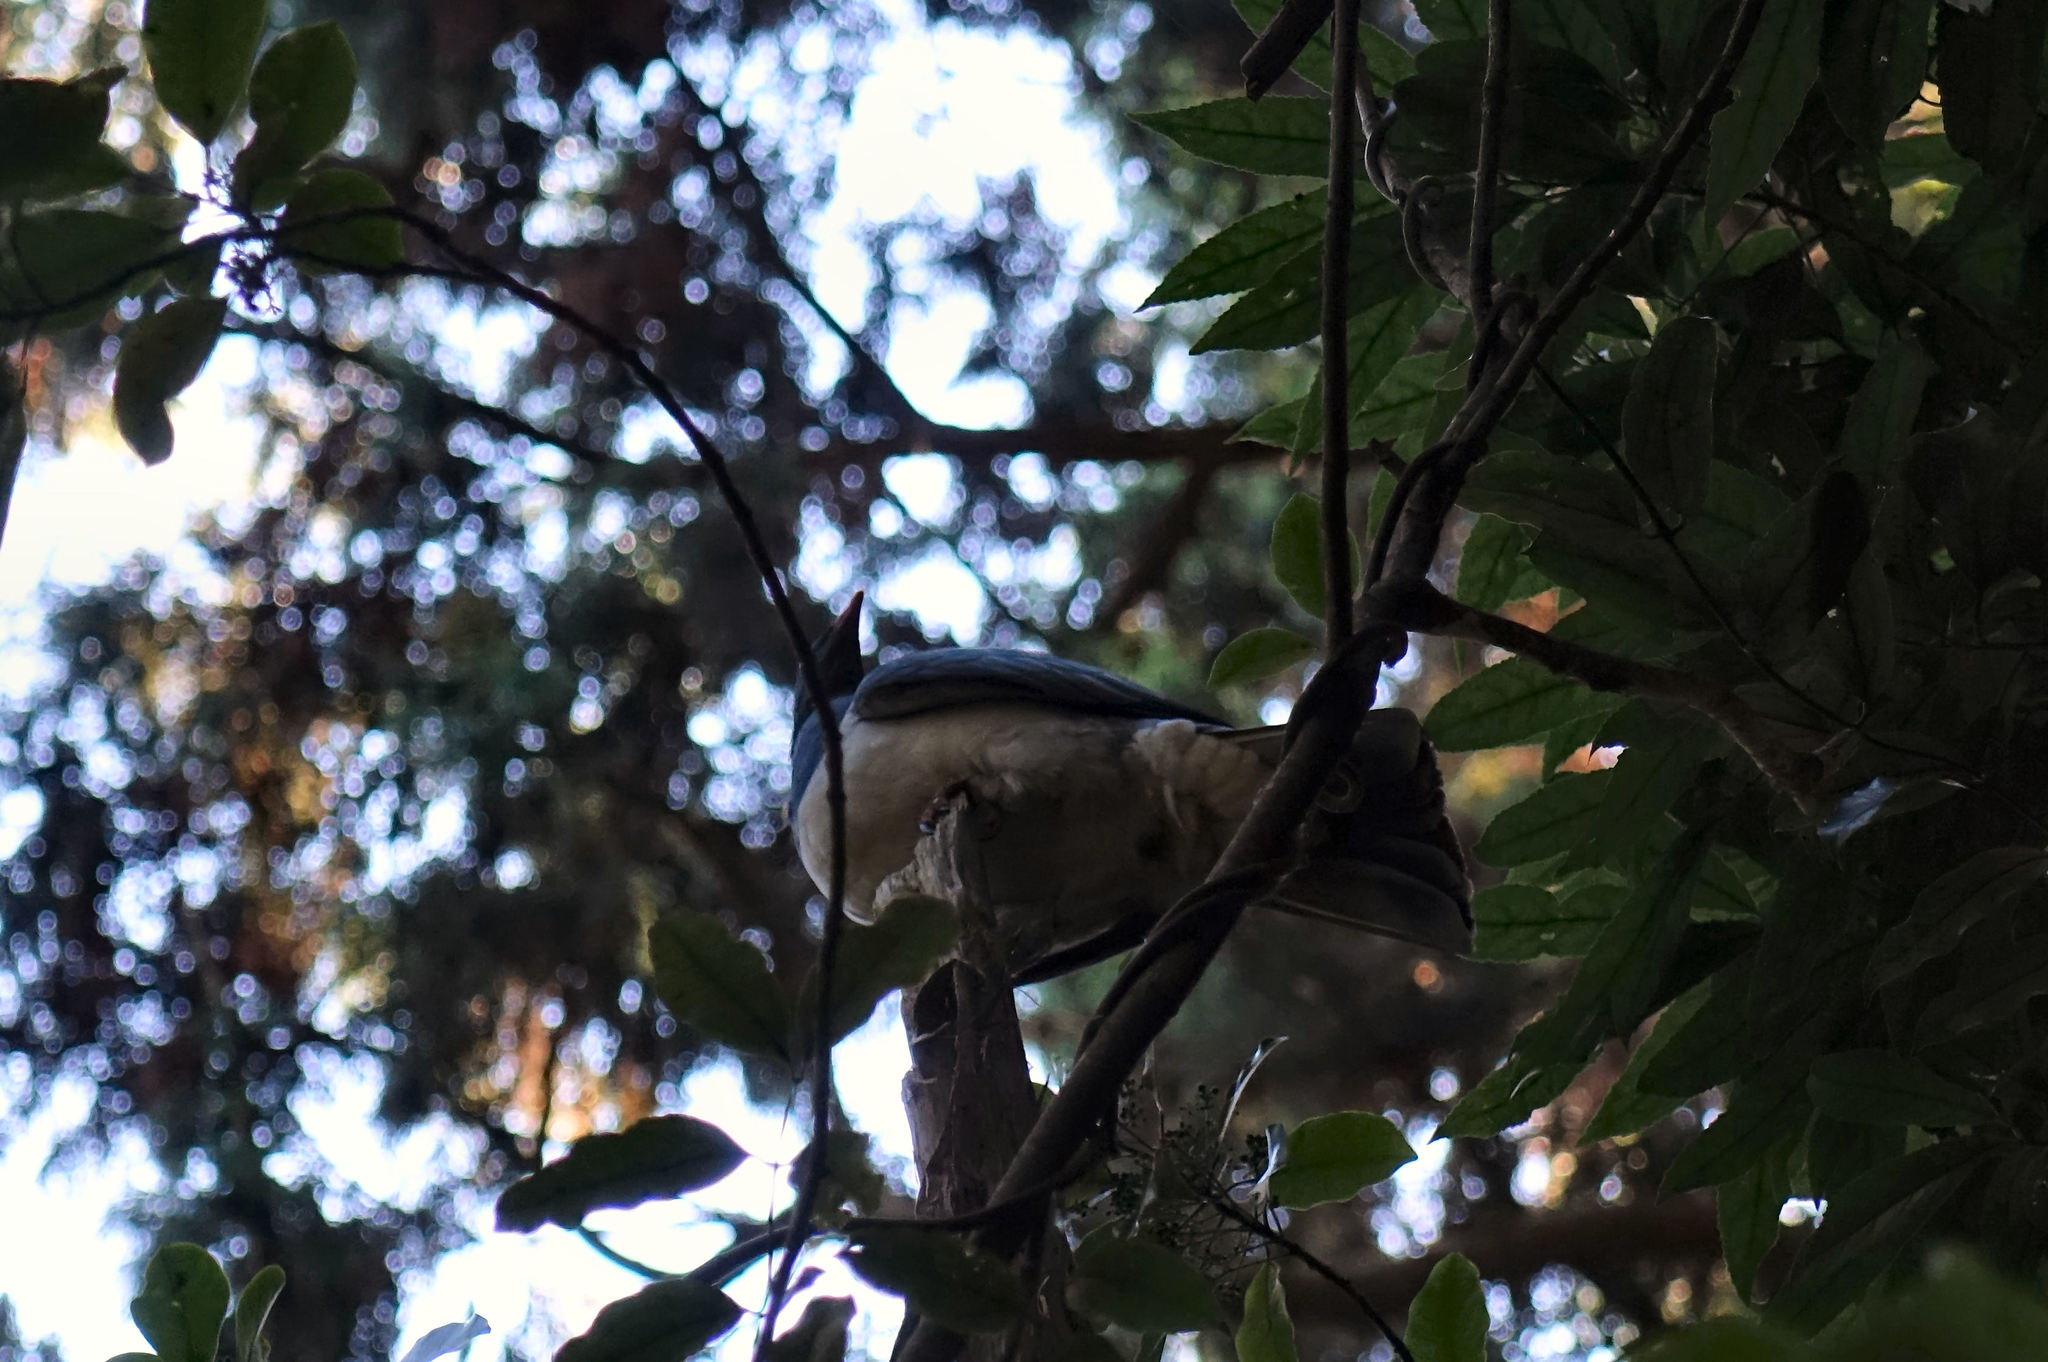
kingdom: Animalia
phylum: Chordata
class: Aves
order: Columbiformes
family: Columbidae
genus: Hemiphaga
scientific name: Hemiphaga novaeseelandiae
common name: New zealand pigeon
